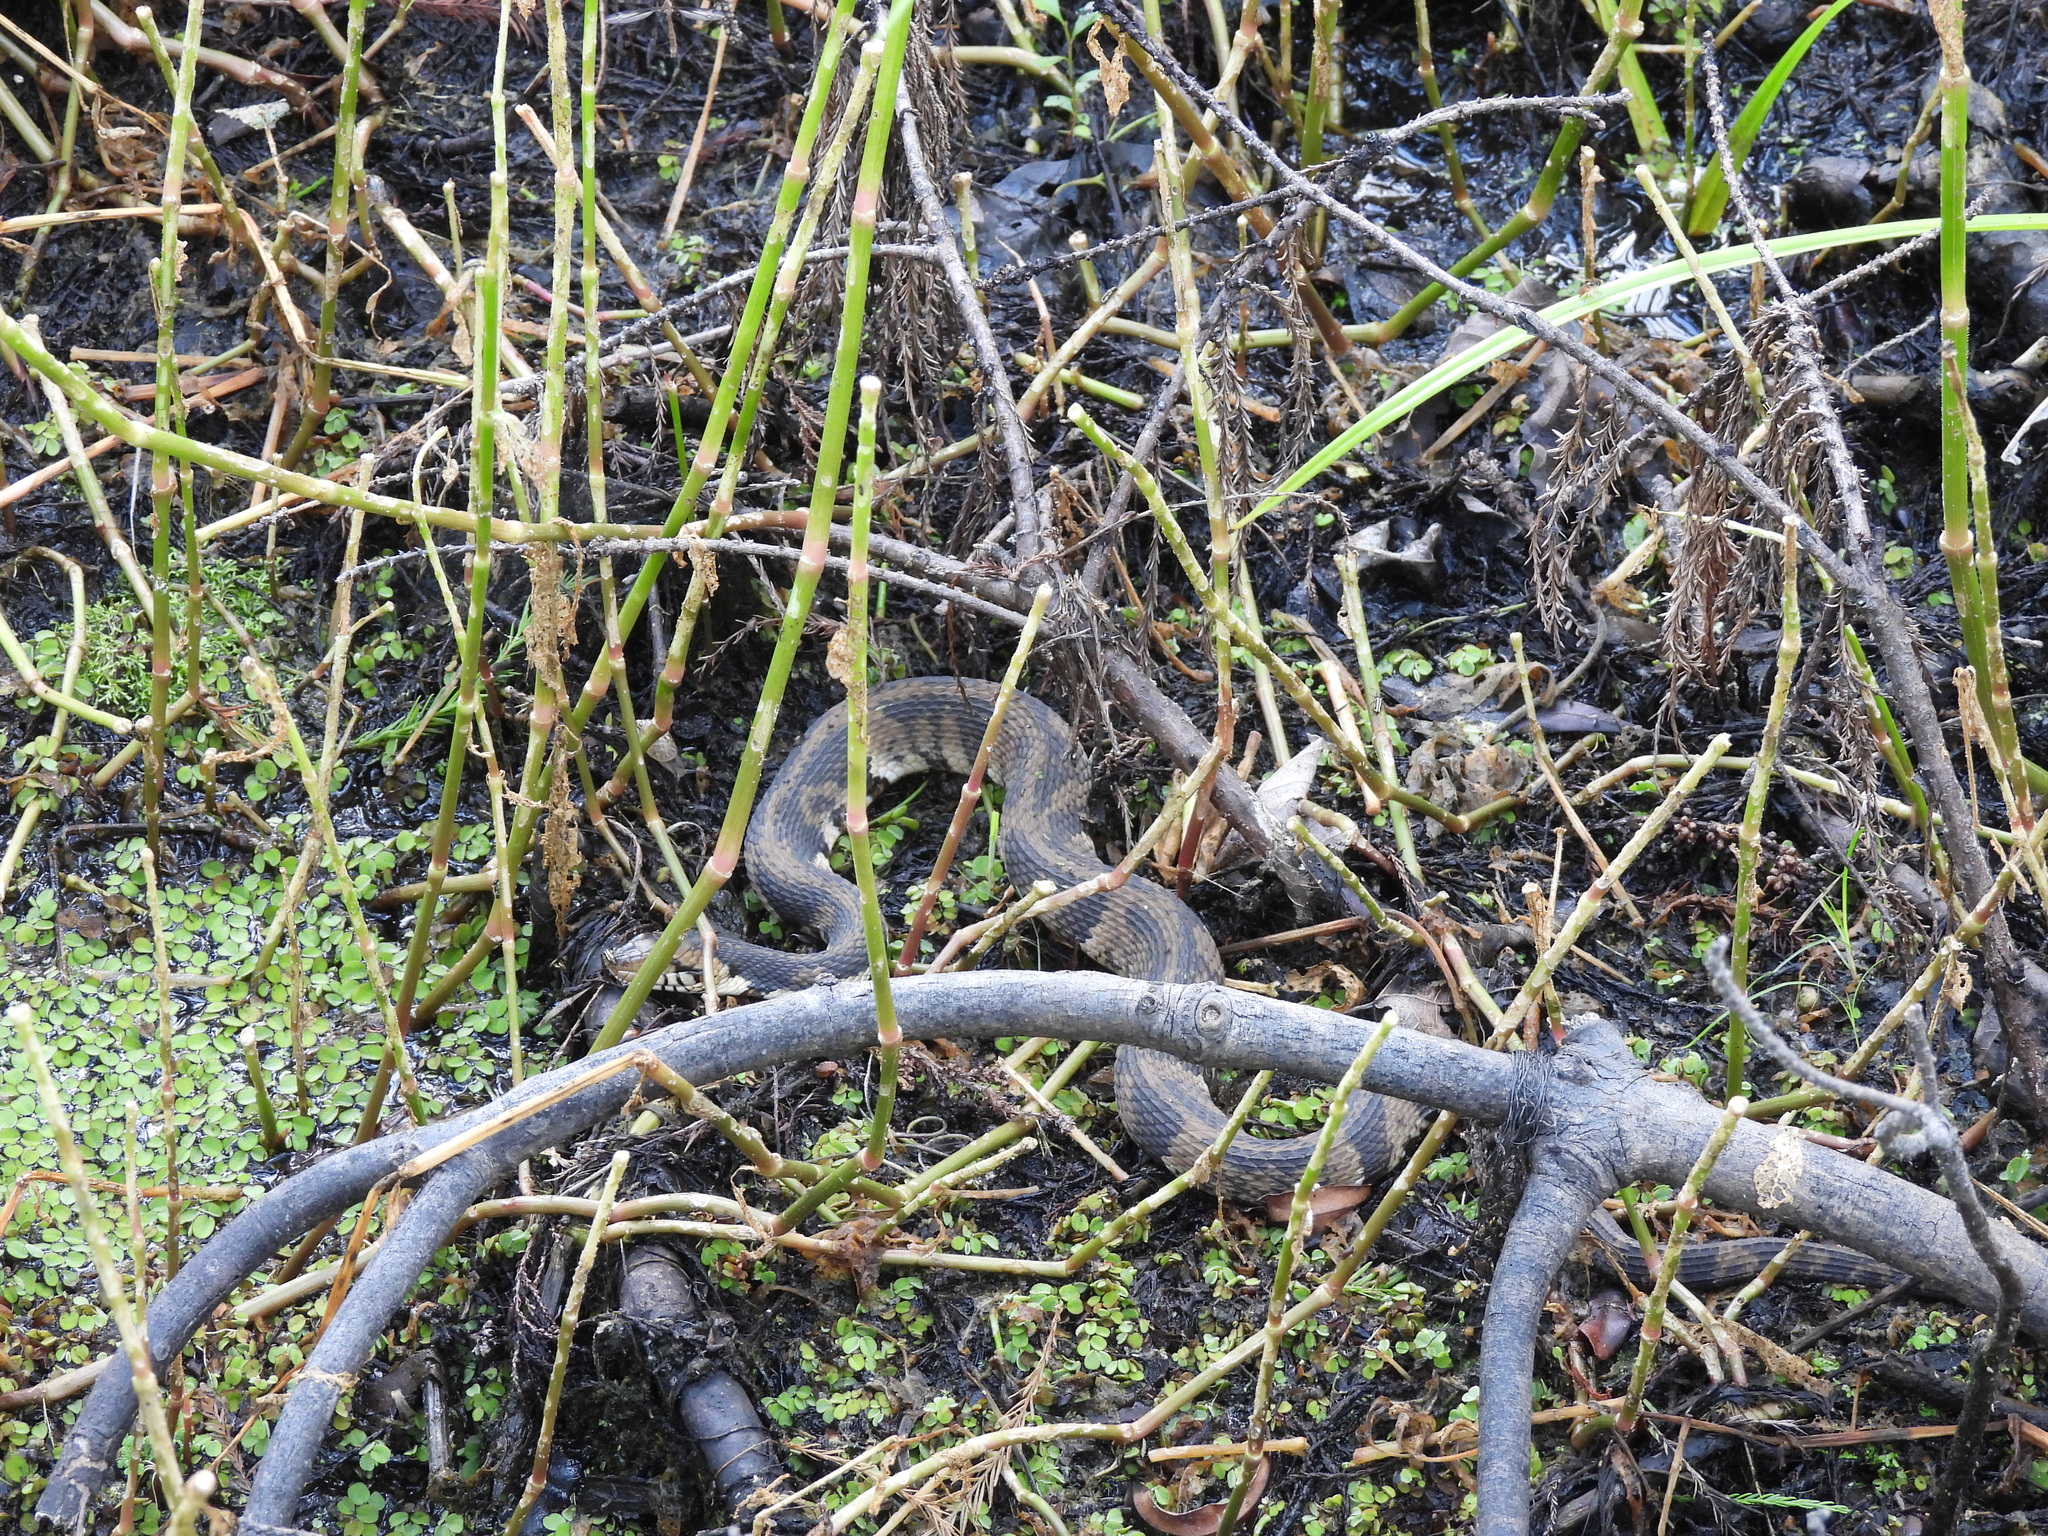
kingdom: Animalia
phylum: Chordata
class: Squamata
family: Colubridae
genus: Nerodia
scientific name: Nerodia fasciata
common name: Southern water snake
